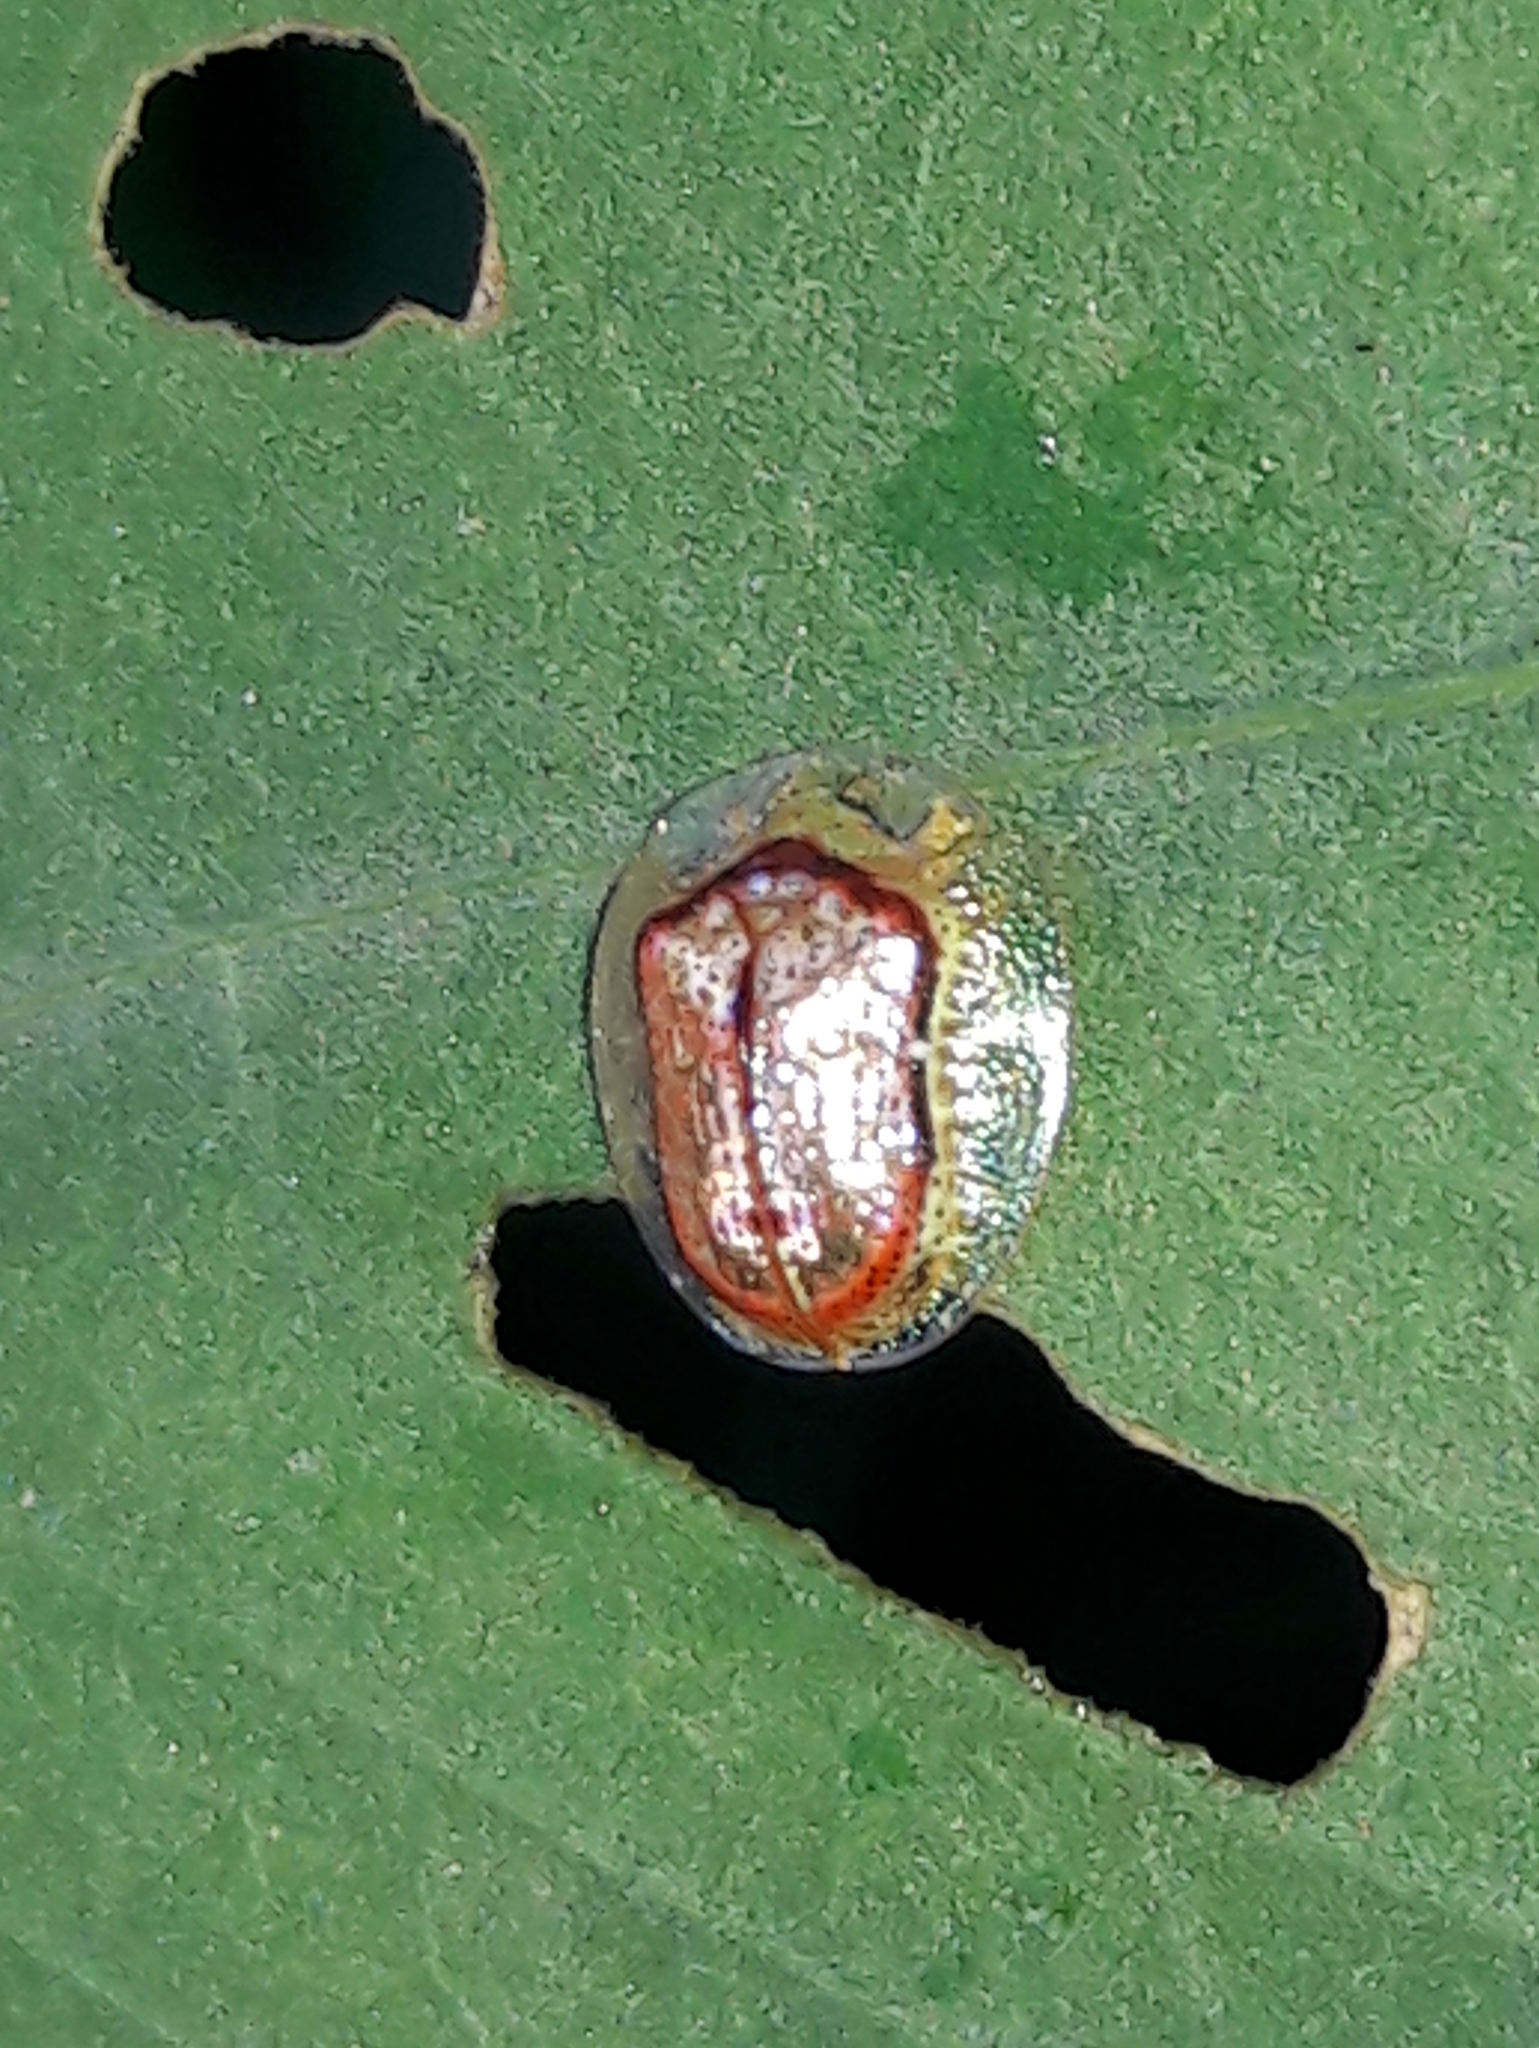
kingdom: Animalia
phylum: Arthropoda
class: Insecta
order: Coleoptera
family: Chrysomelidae
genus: Microctenochira
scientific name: Microctenochira quadrata
